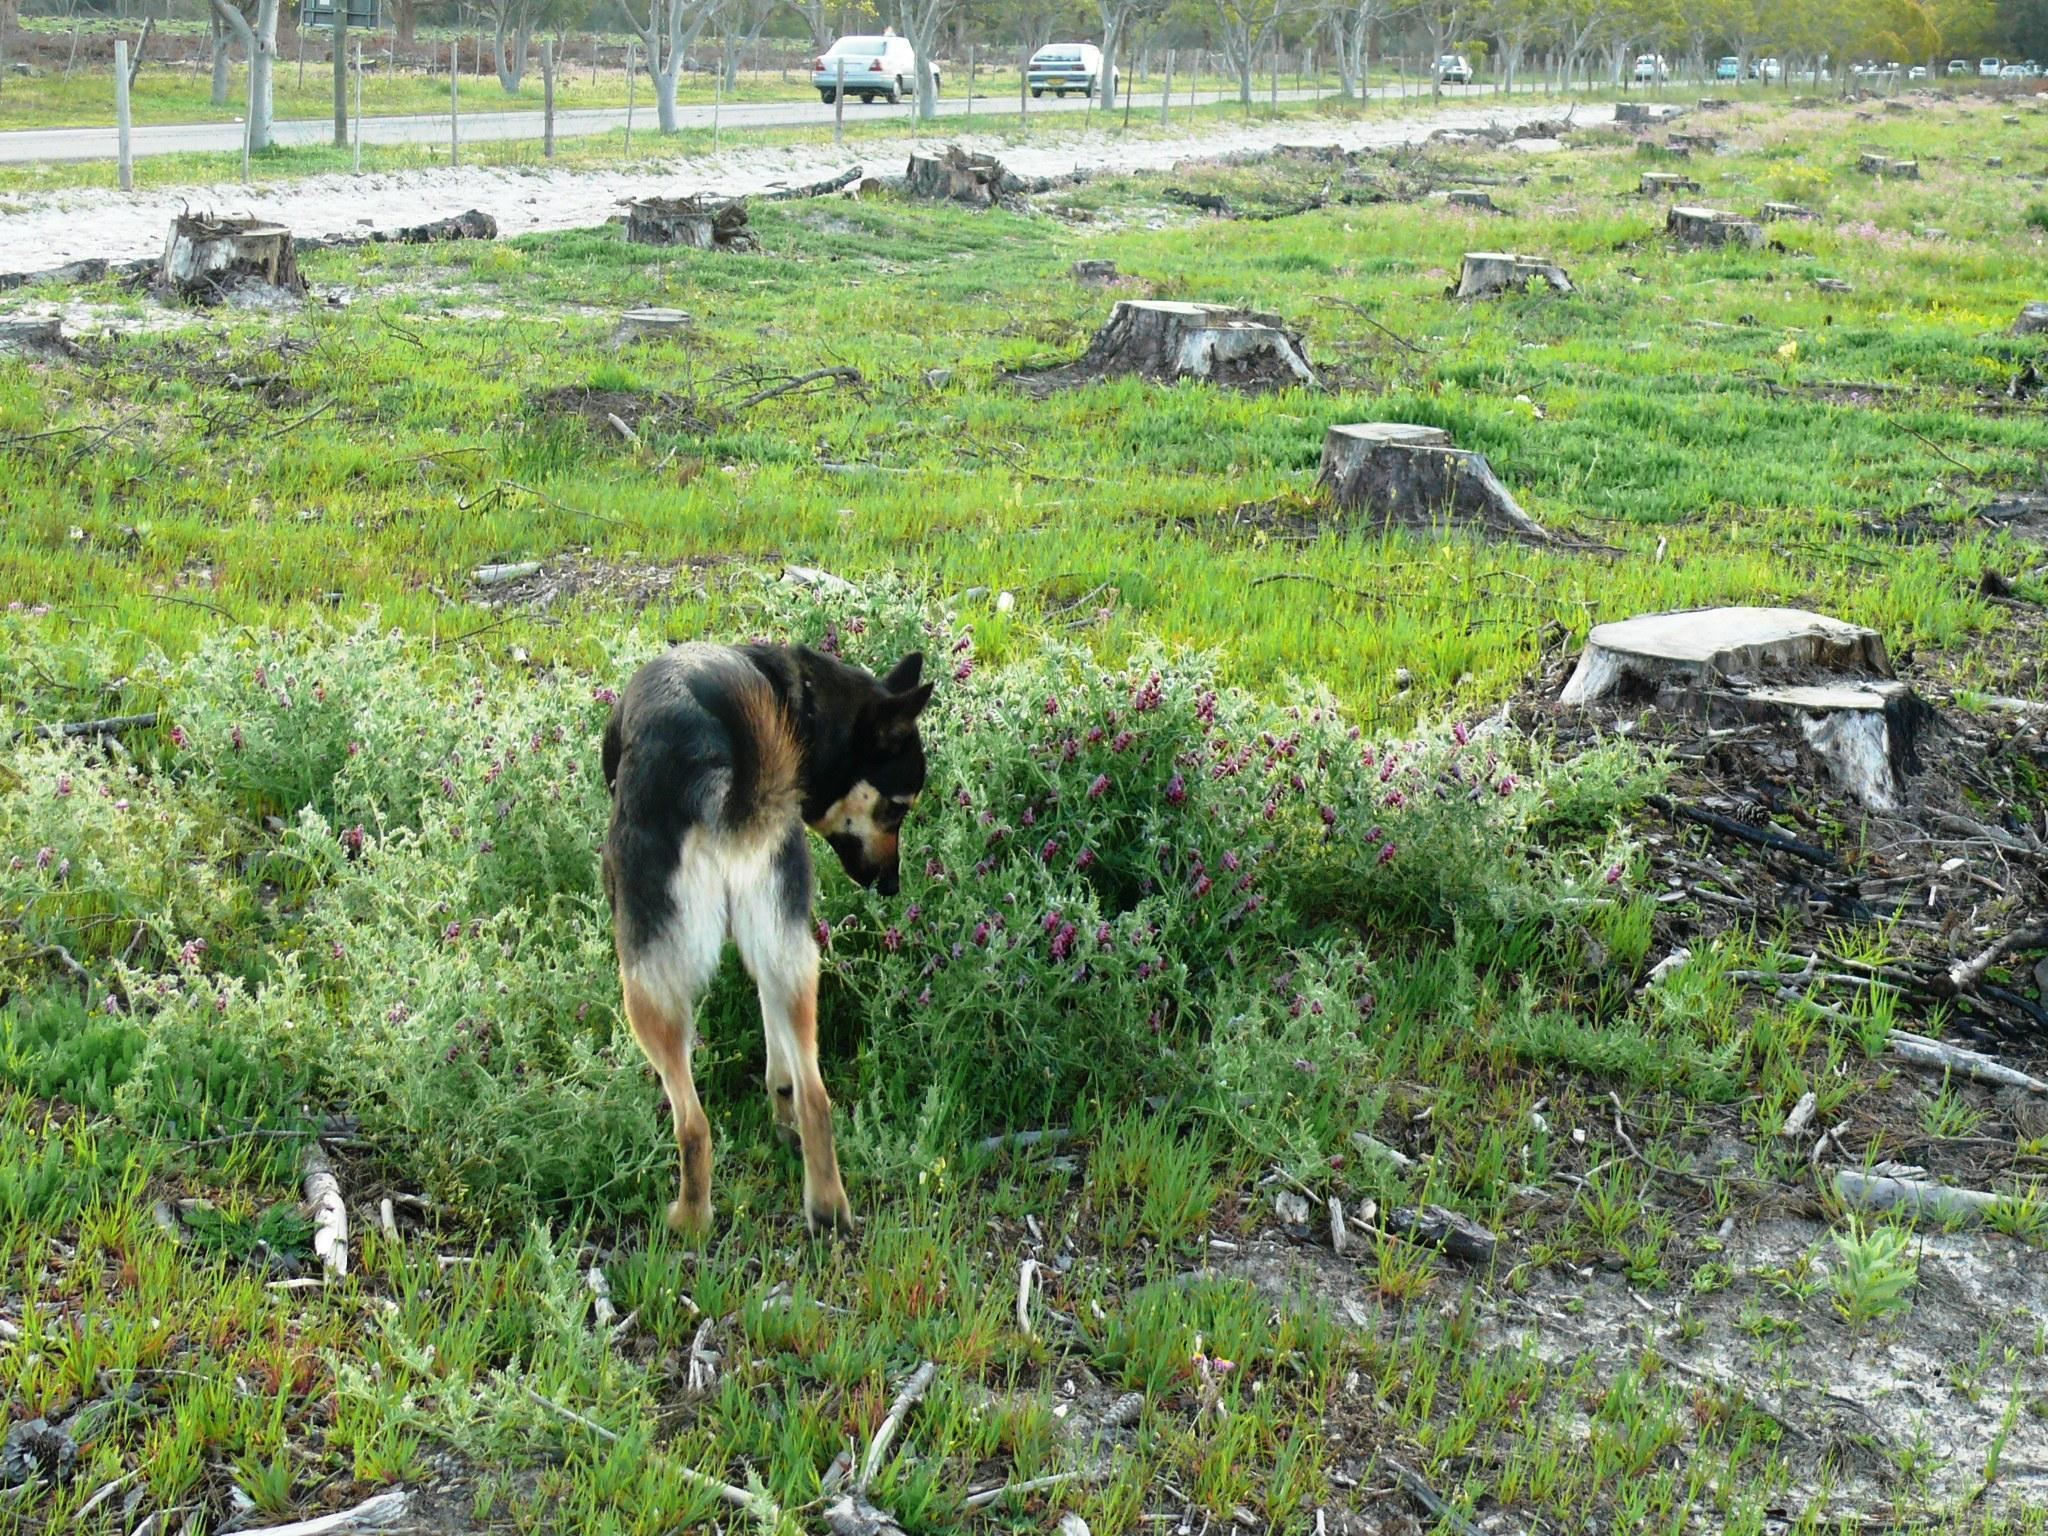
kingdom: Plantae
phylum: Tracheophyta
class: Magnoliopsida
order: Fabales
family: Fabaceae
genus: Vicia
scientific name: Vicia benghalensis
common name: Purple vetch
